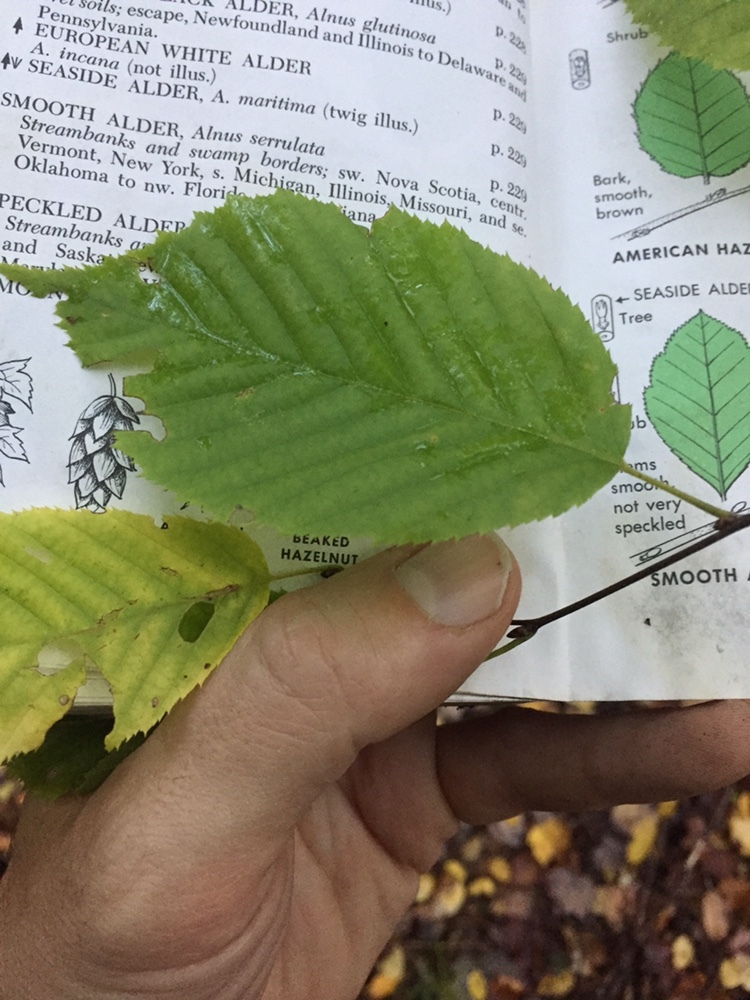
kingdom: Plantae
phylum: Tracheophyta
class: Magnoliopsida
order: Fagales
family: Betulaceae
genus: Carpinus
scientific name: Carpinus caroliniana
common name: American hornbeam
